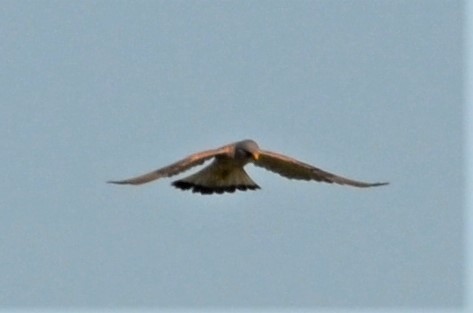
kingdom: Animalia
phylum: Chordata
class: Aves
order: Falconiformes
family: Falconidae
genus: Falco
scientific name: Falco tinnunculus
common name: Common kestrel
